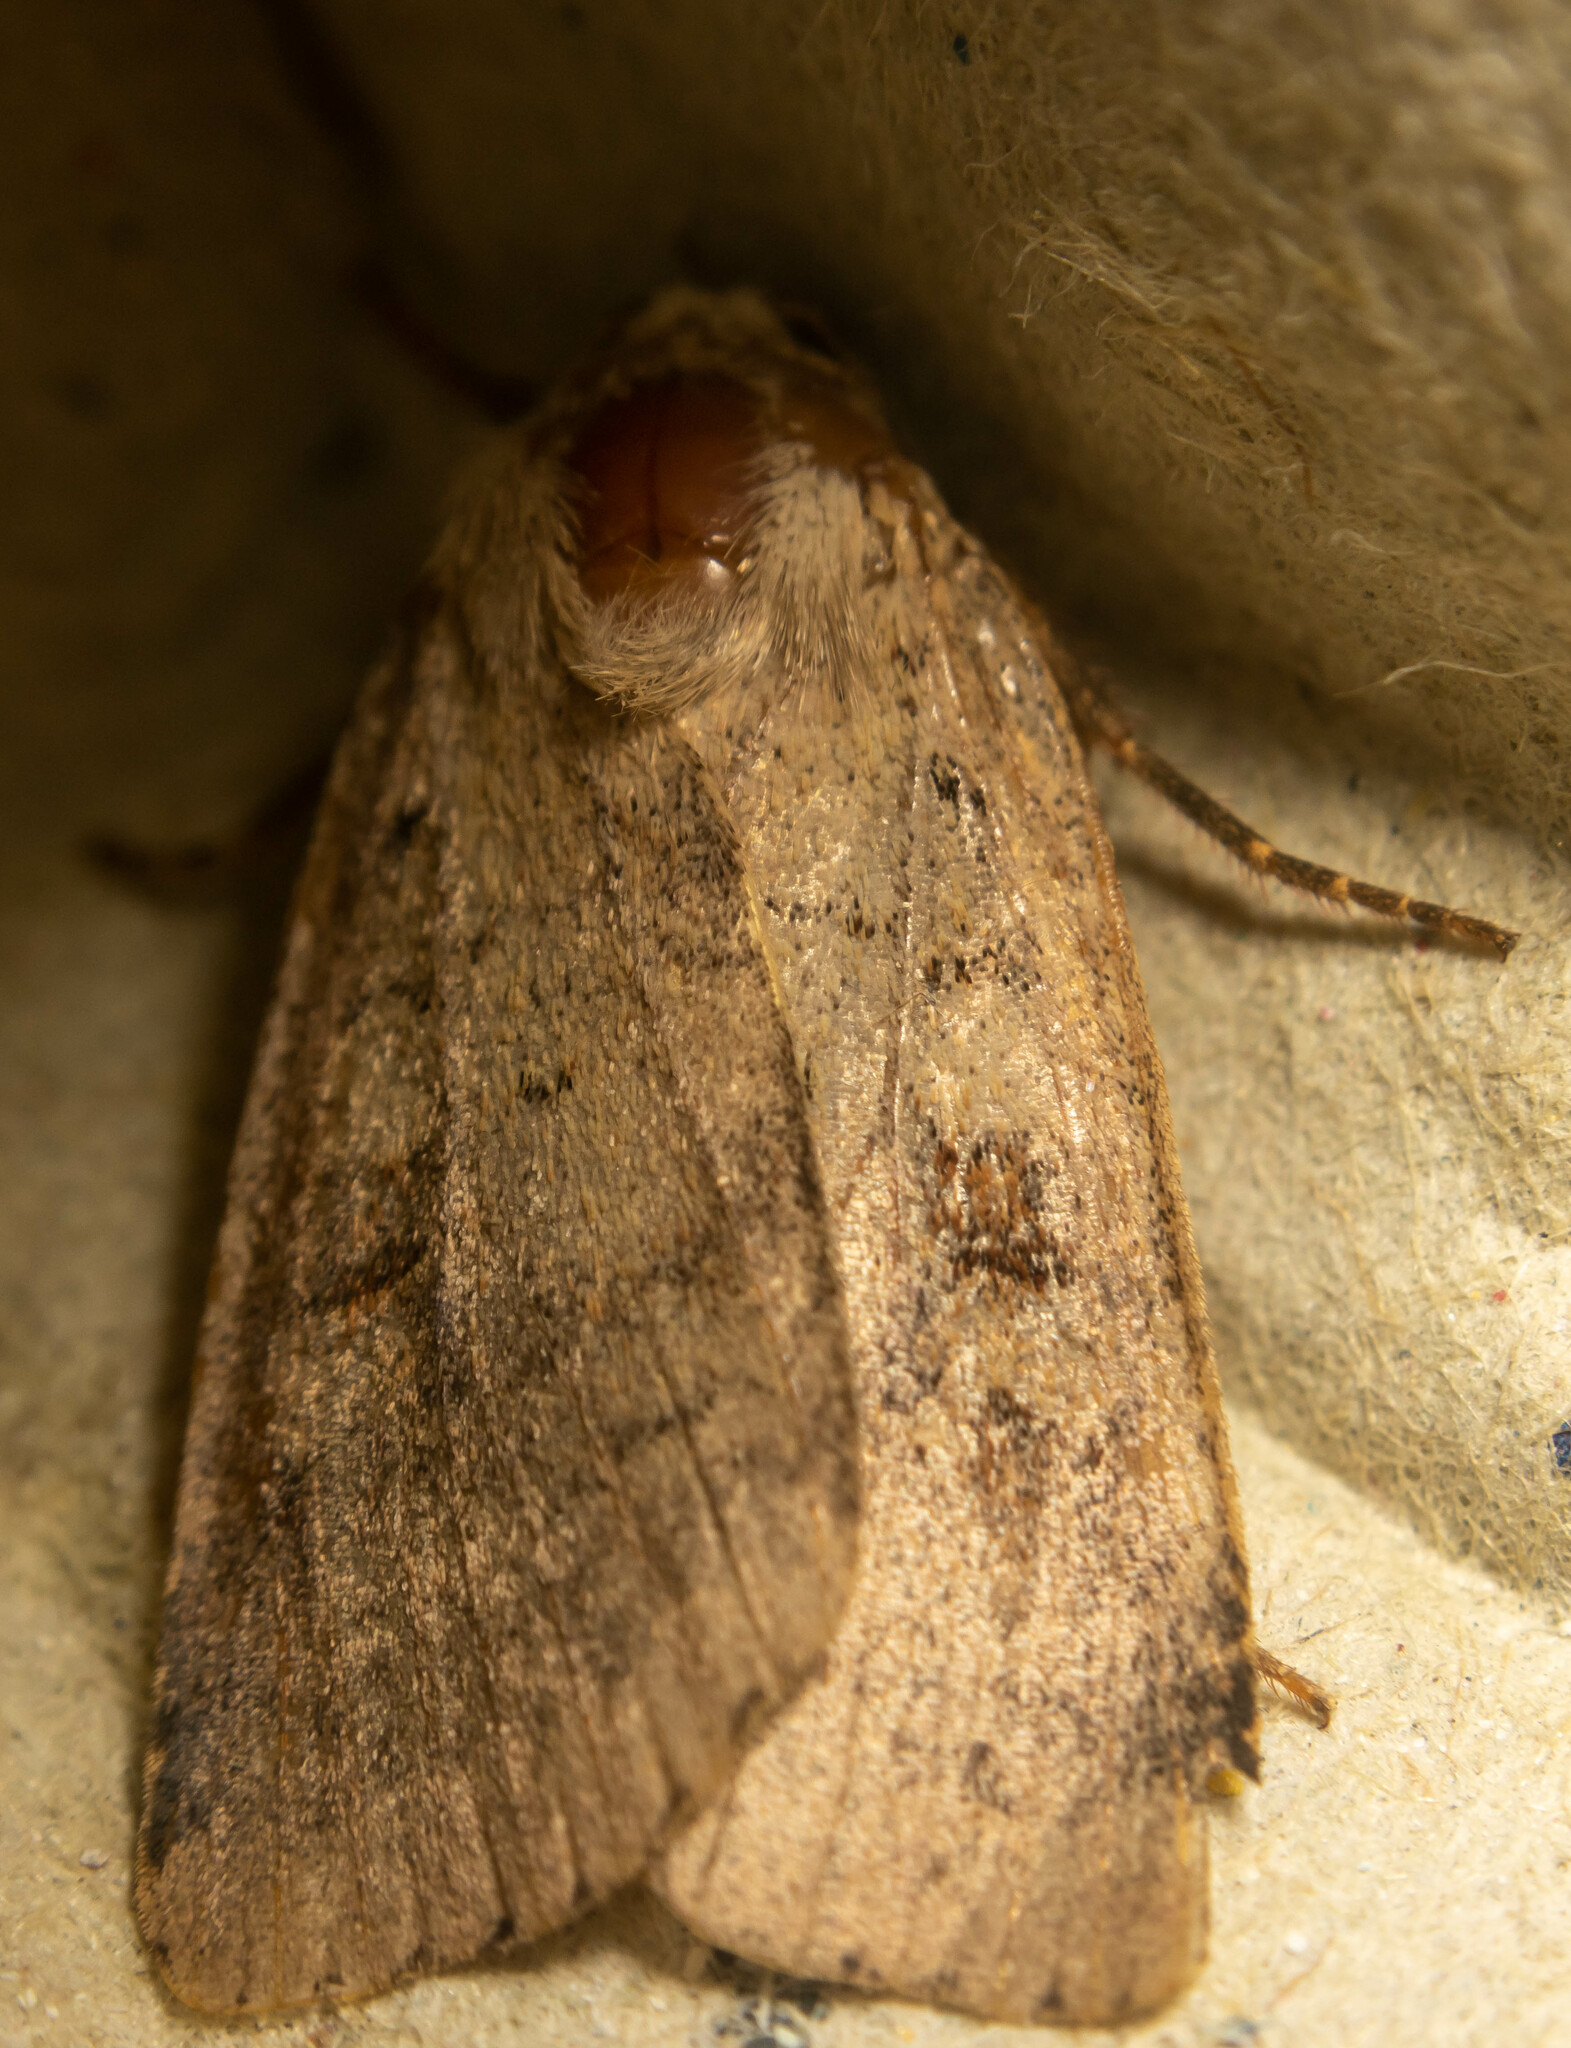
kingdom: Animalia
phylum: Arthropoda
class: Insecta
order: Lepidoptera
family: Noctuidae
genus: Diarsia
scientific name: Diarsia mendica
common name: Ingrailed clay
